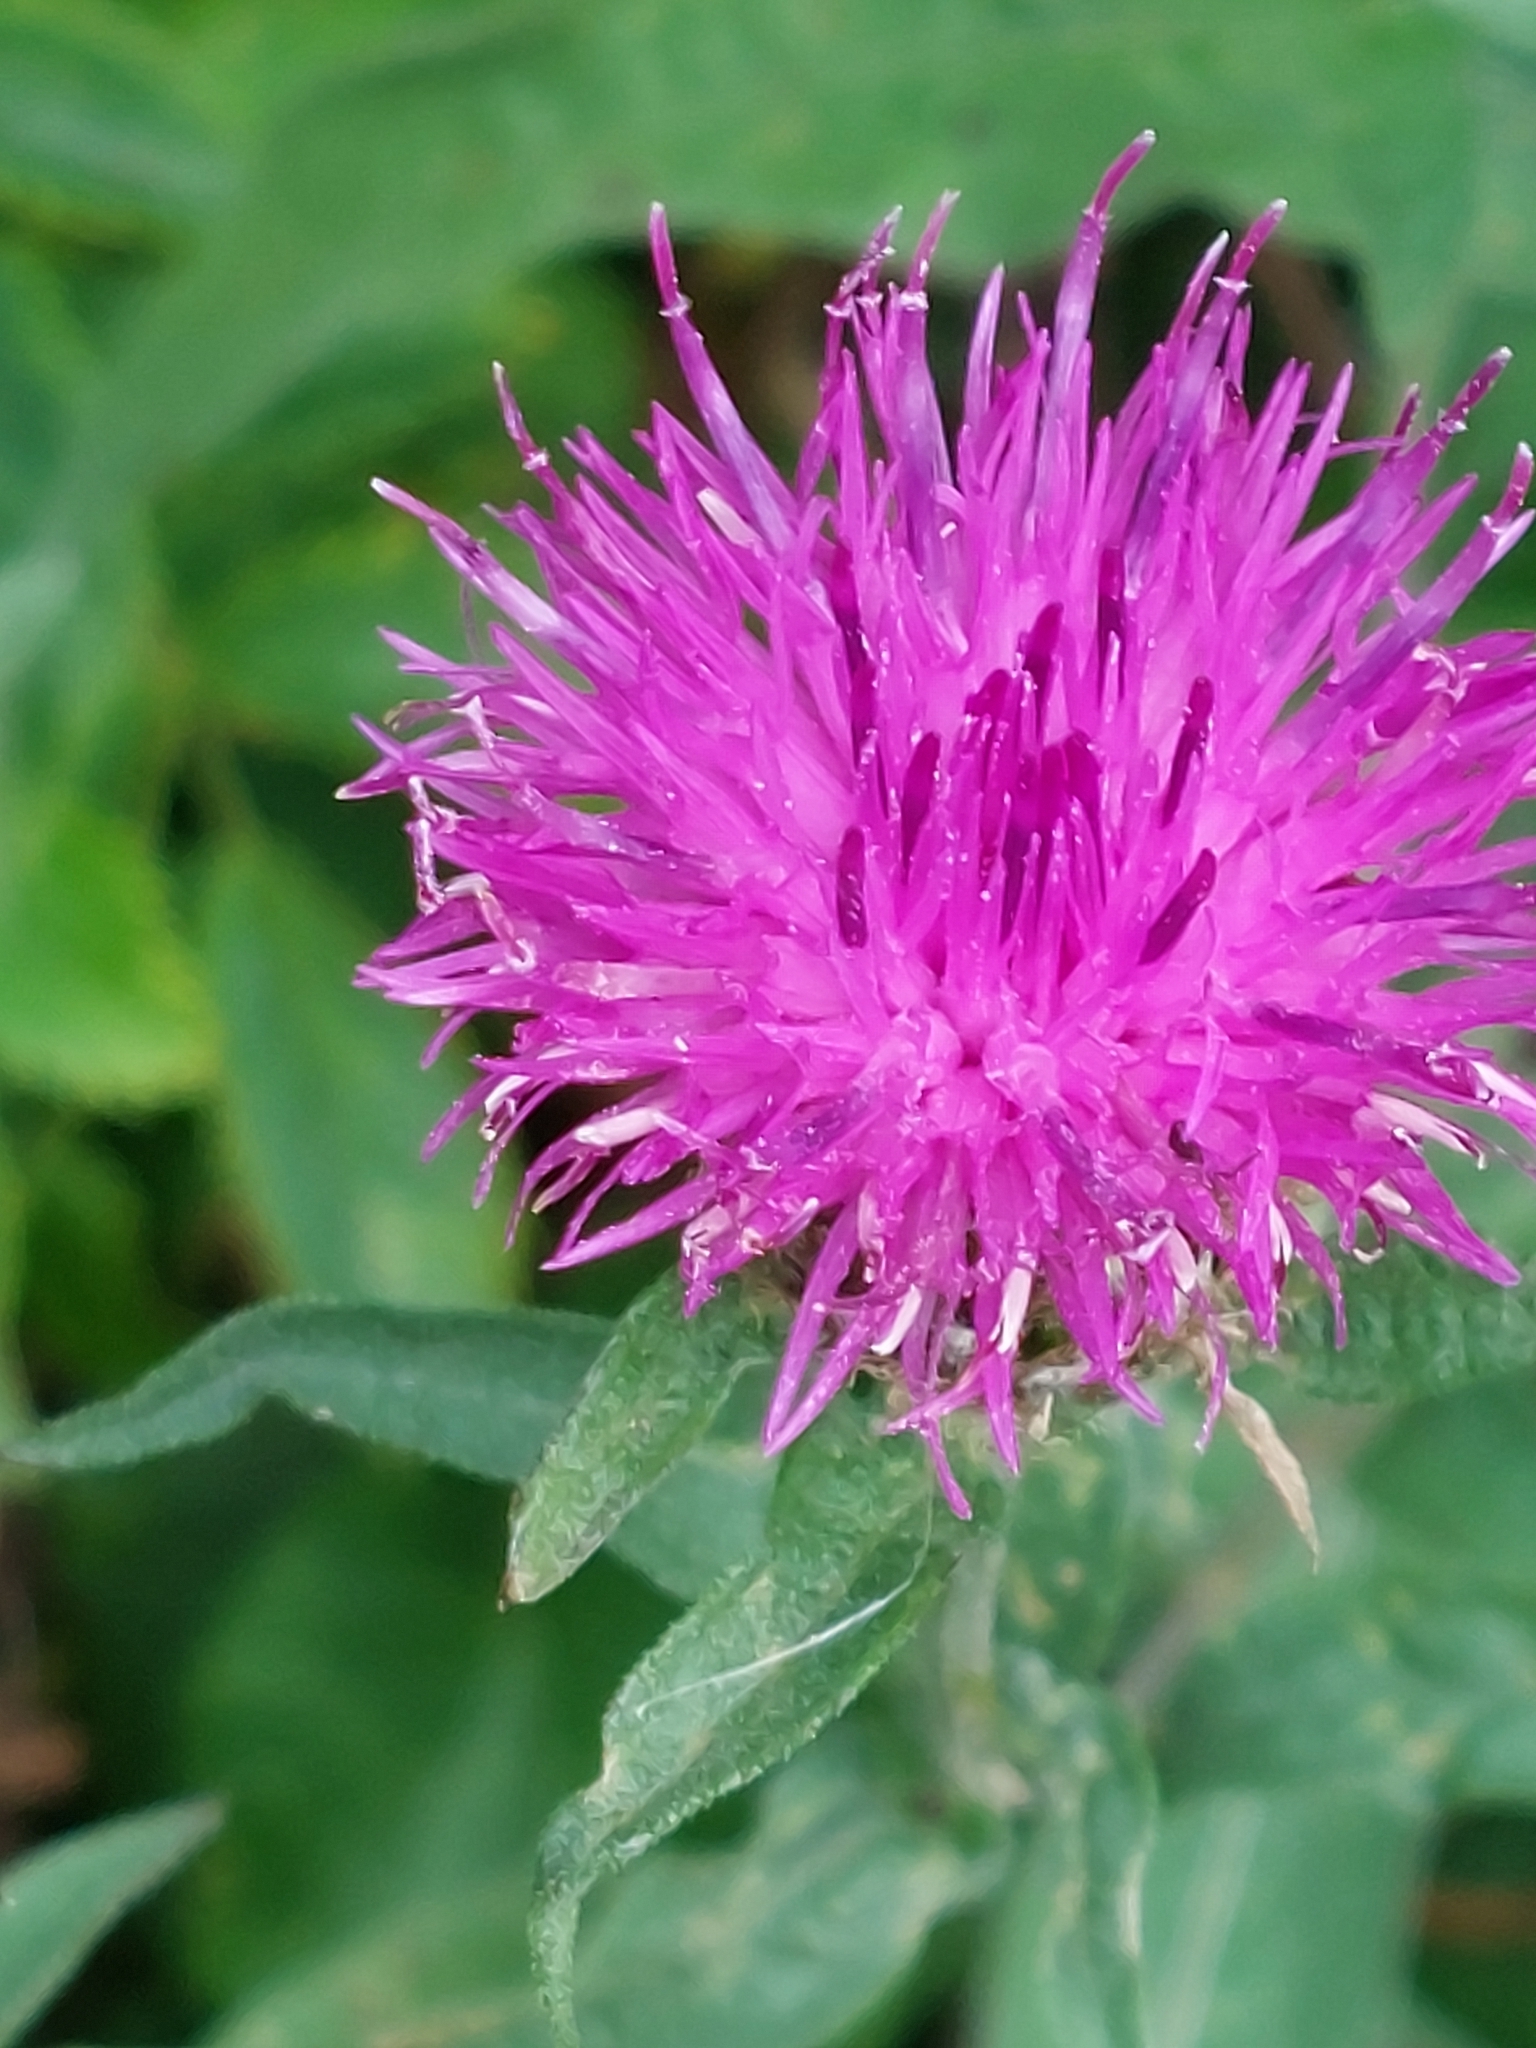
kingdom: Plantae
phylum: Tracheophyta
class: Magnoliopsida
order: Asterales
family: Asteraceae
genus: Centaurea
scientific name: Centaurea nigra
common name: Lesser knapweed
